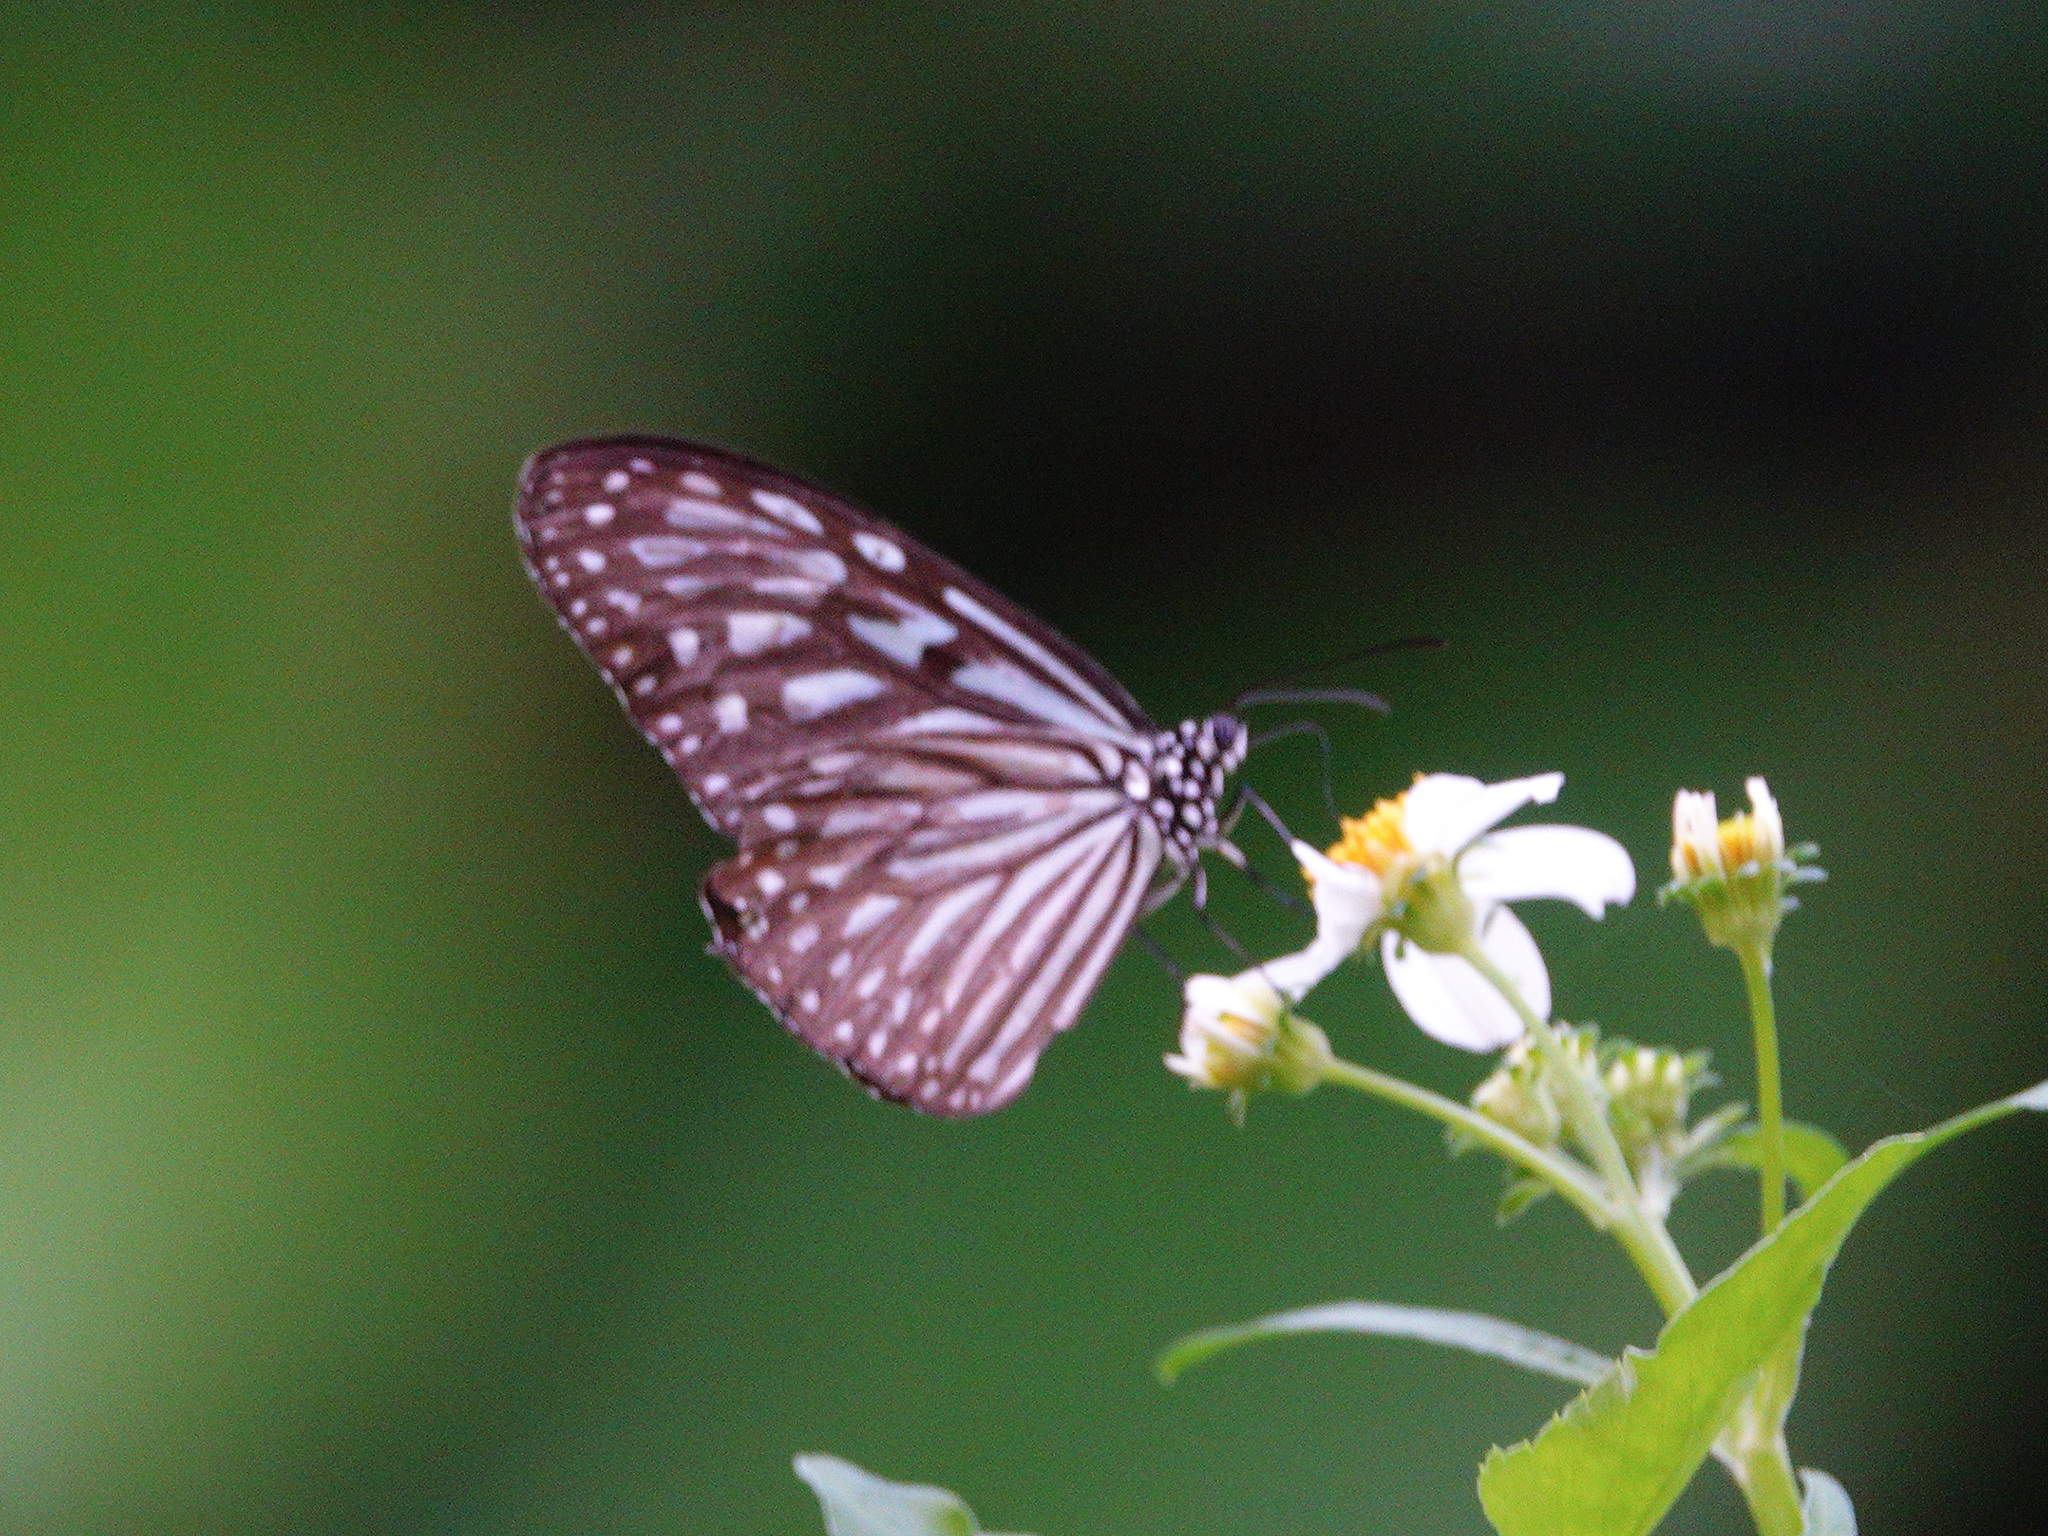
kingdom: Animalia
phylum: Arthropoda
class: Insecta
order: Lepidoptera
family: Nymphalidae
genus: Ideopsis
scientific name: Ideopsis vulgaris
